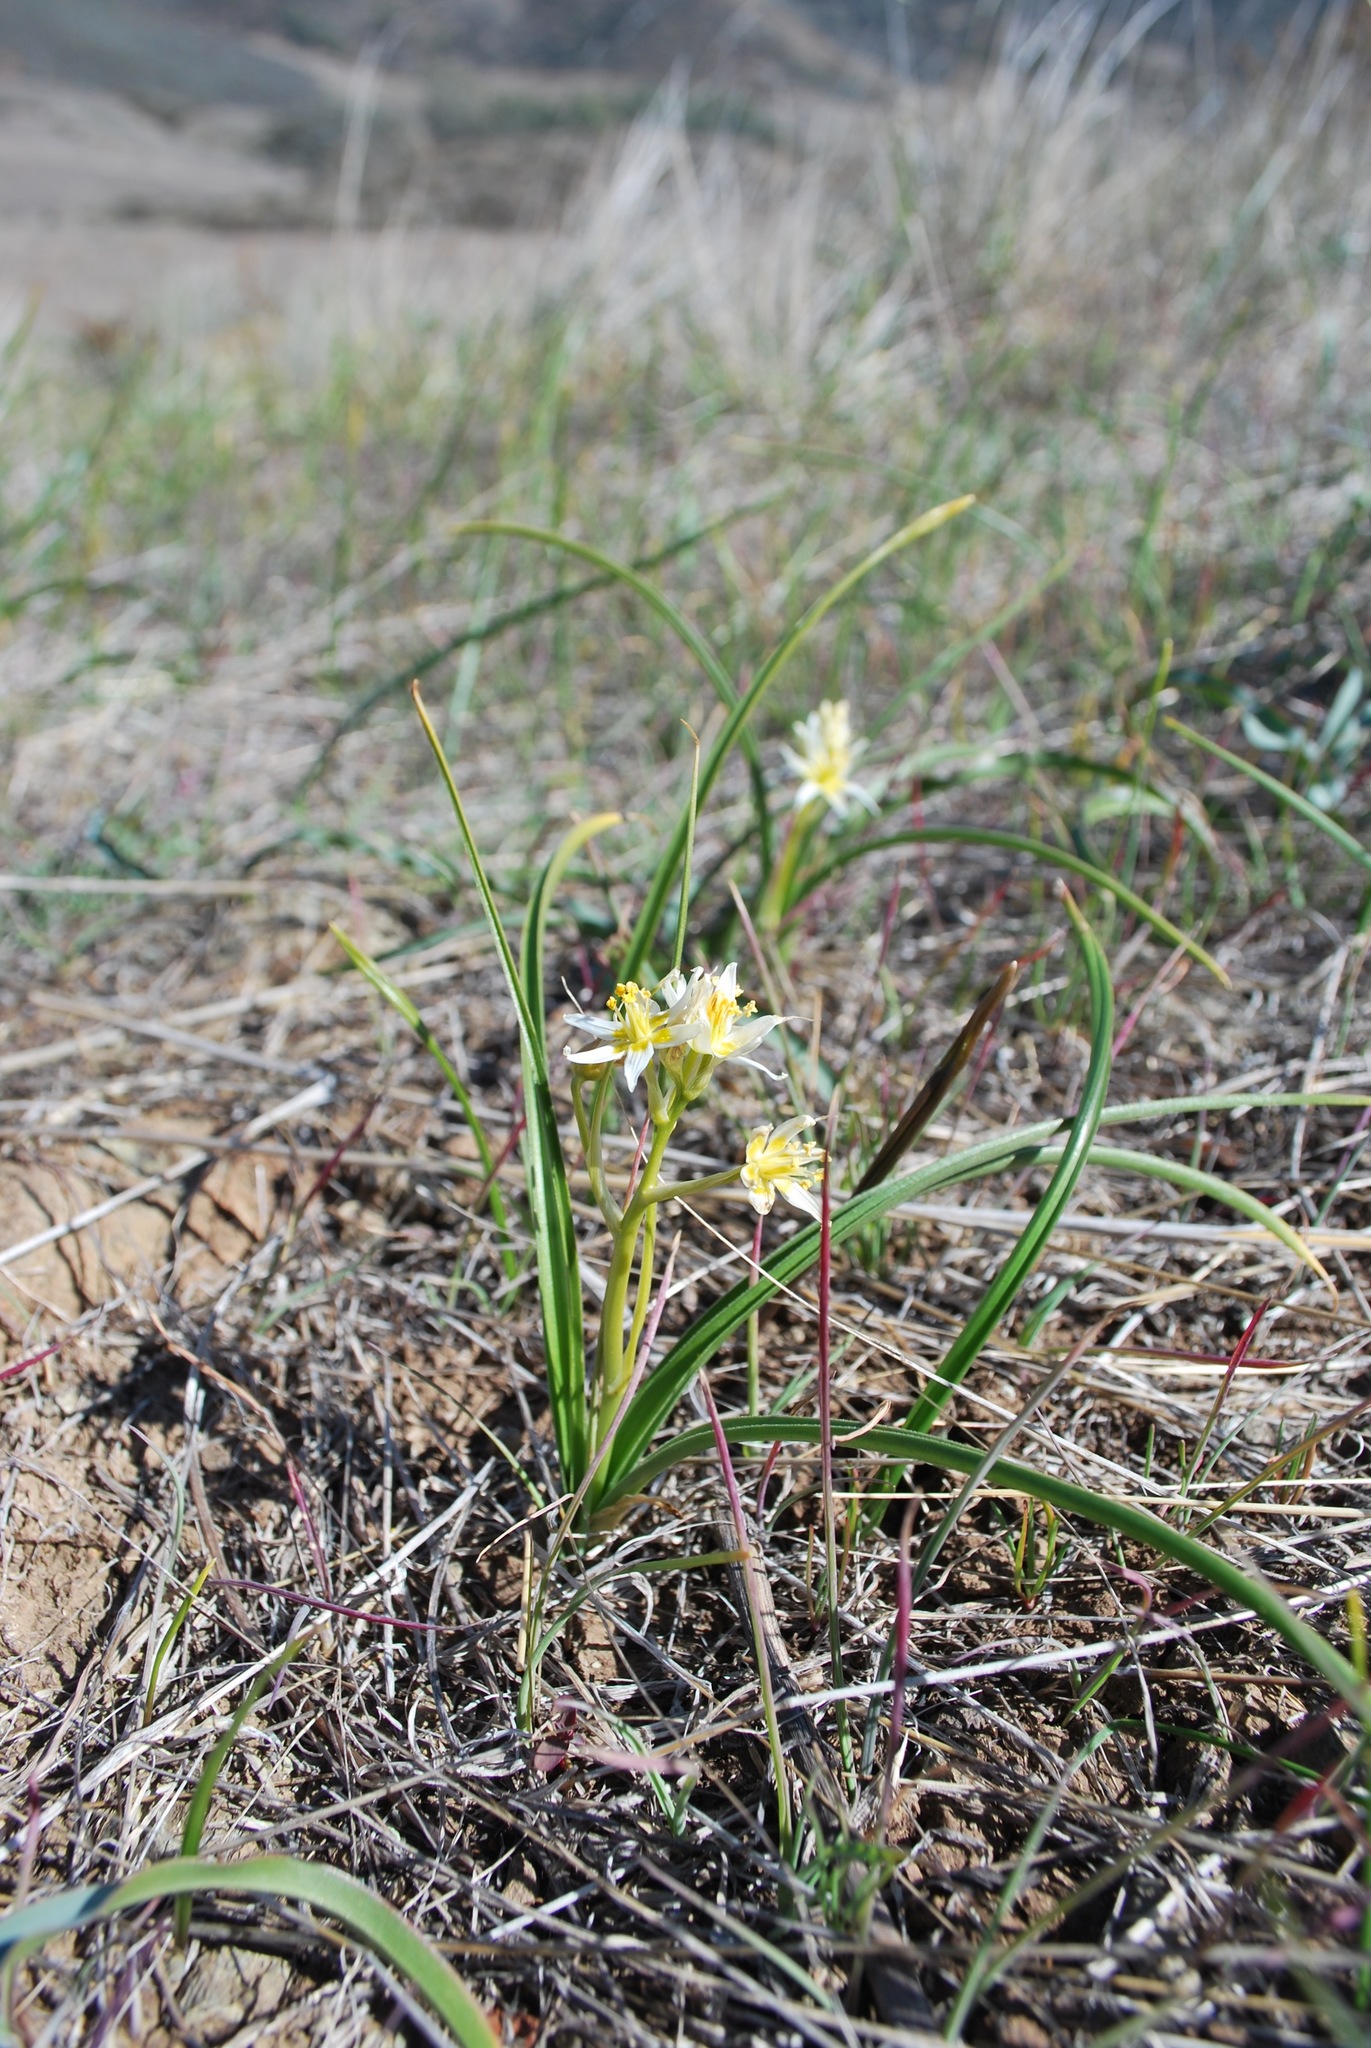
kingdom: Plantae
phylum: Tracheophyta
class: Liliopsida
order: Liliales
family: Melanthiaceae
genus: Toxicoscordion
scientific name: Toxicoscordion fremontii
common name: Fremont's death camas
